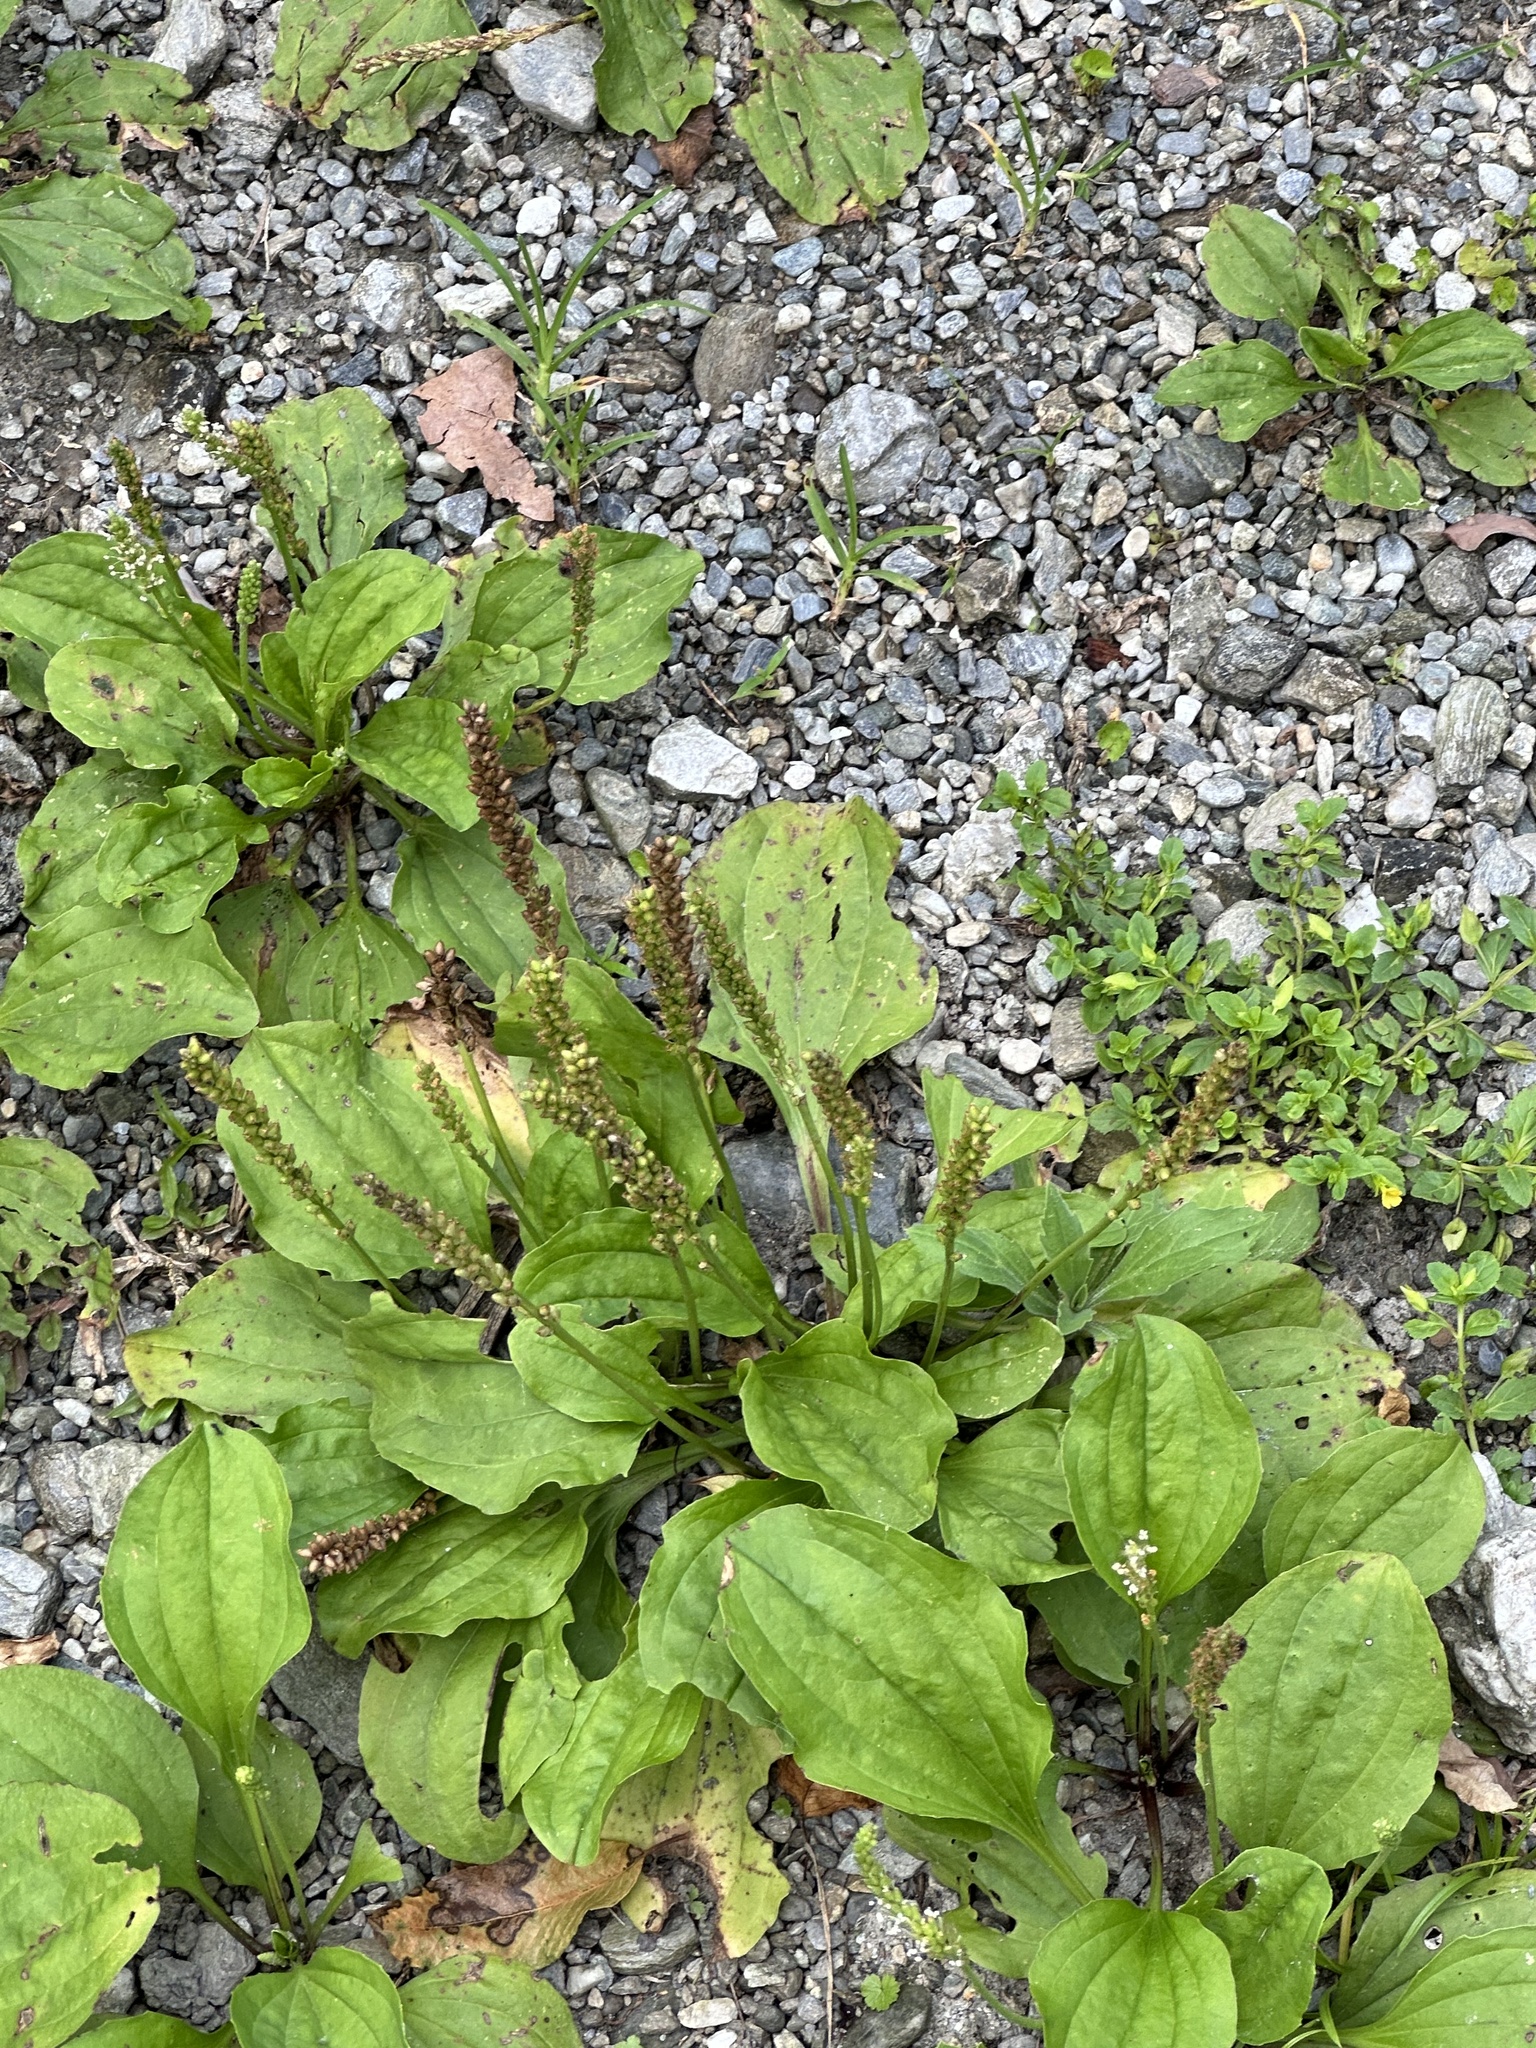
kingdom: Plantae
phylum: Tracheophyta
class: Magnoliopsida
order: Lamiales
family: Plantaginaceae
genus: Plantago
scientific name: Plantago asiatica
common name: Psyllium
